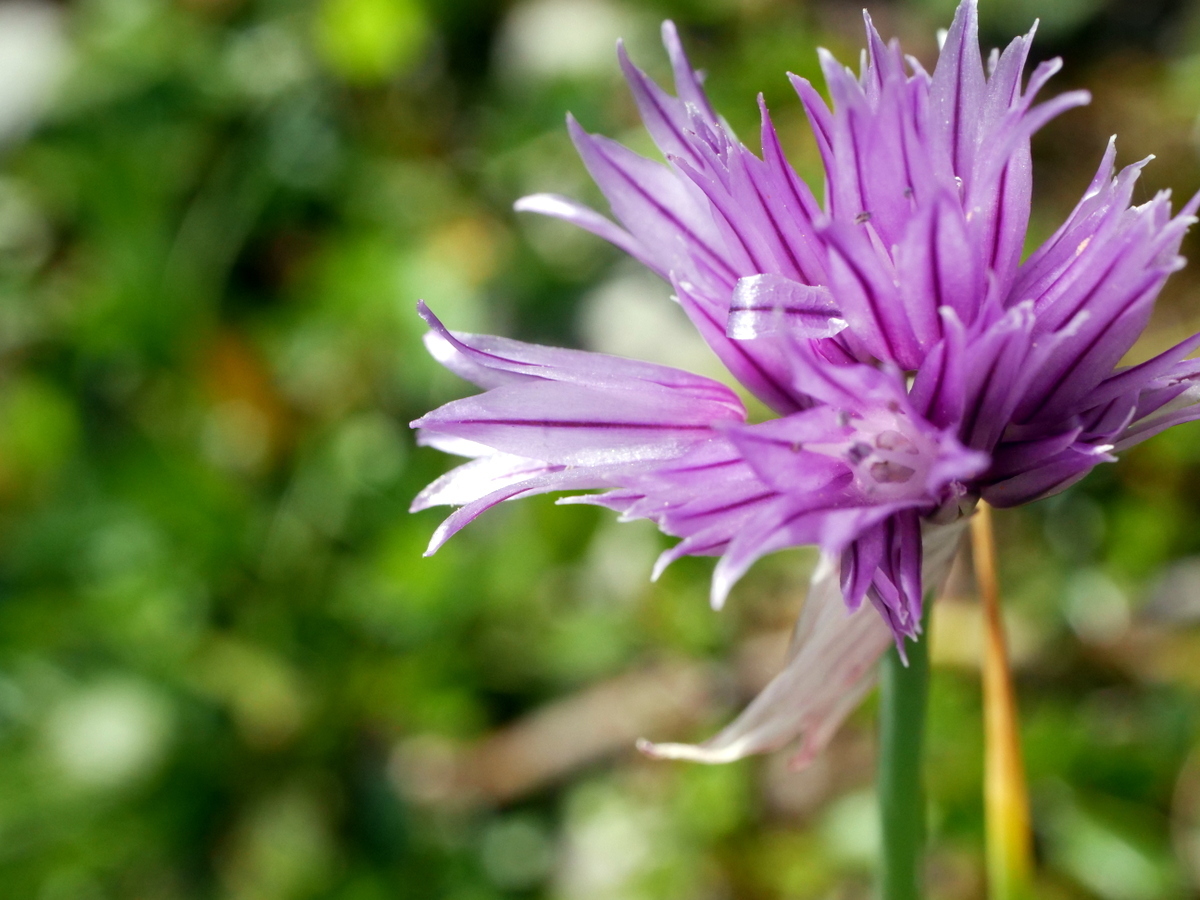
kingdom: Plantae
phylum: Tracheophyta
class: Liliopsida
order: Asparagales
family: Amaryllidaceae
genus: Allium
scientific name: Allium schoenoprasum
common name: Chives
